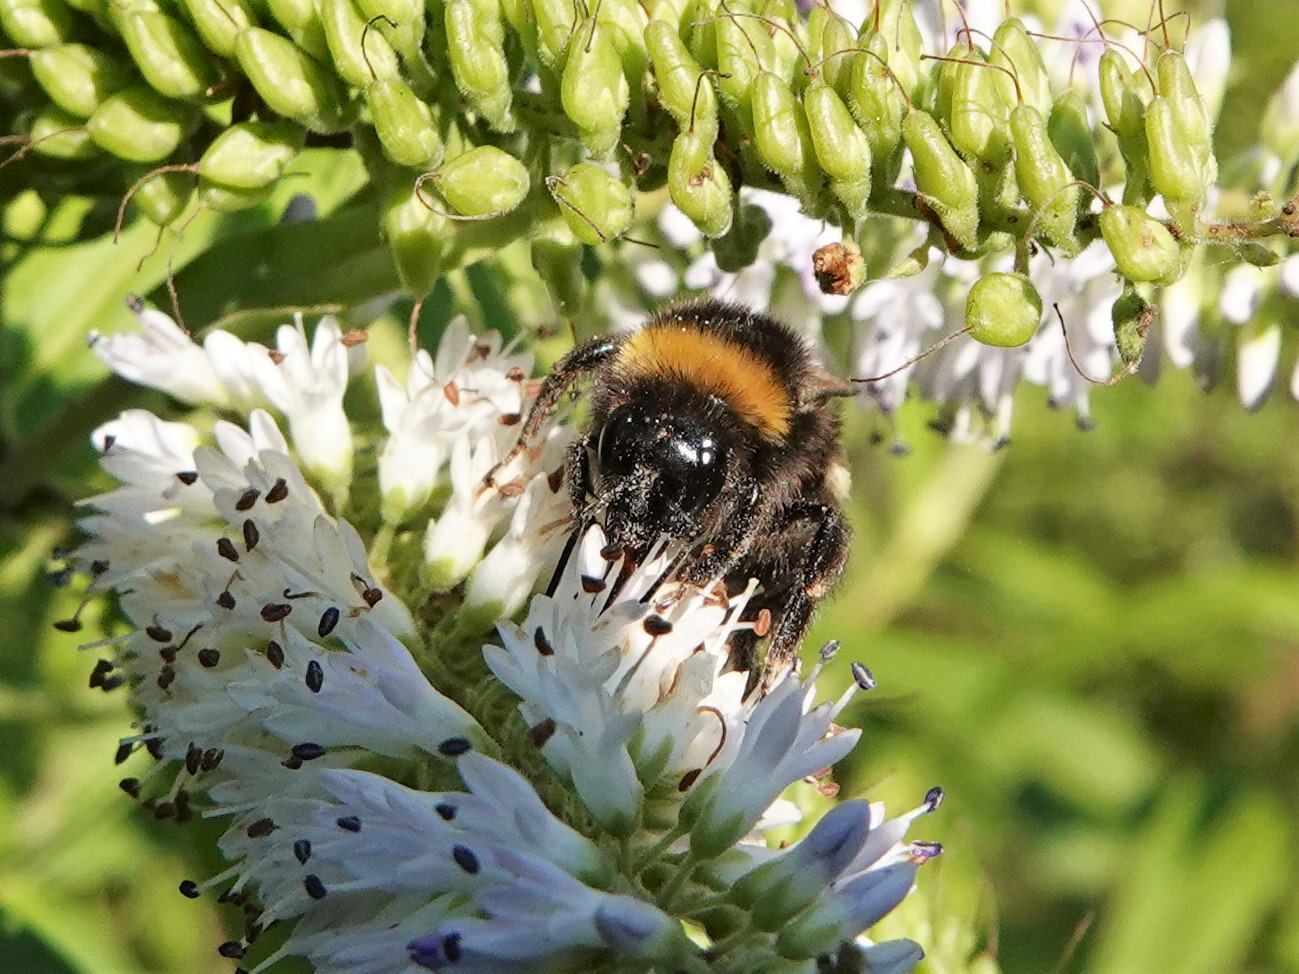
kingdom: Animalia
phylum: Arthropoda
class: Insecta
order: Hymenoptera
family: Apidae
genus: Bombus
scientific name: Bombus terrestris
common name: Buff-tailed bumblebee
